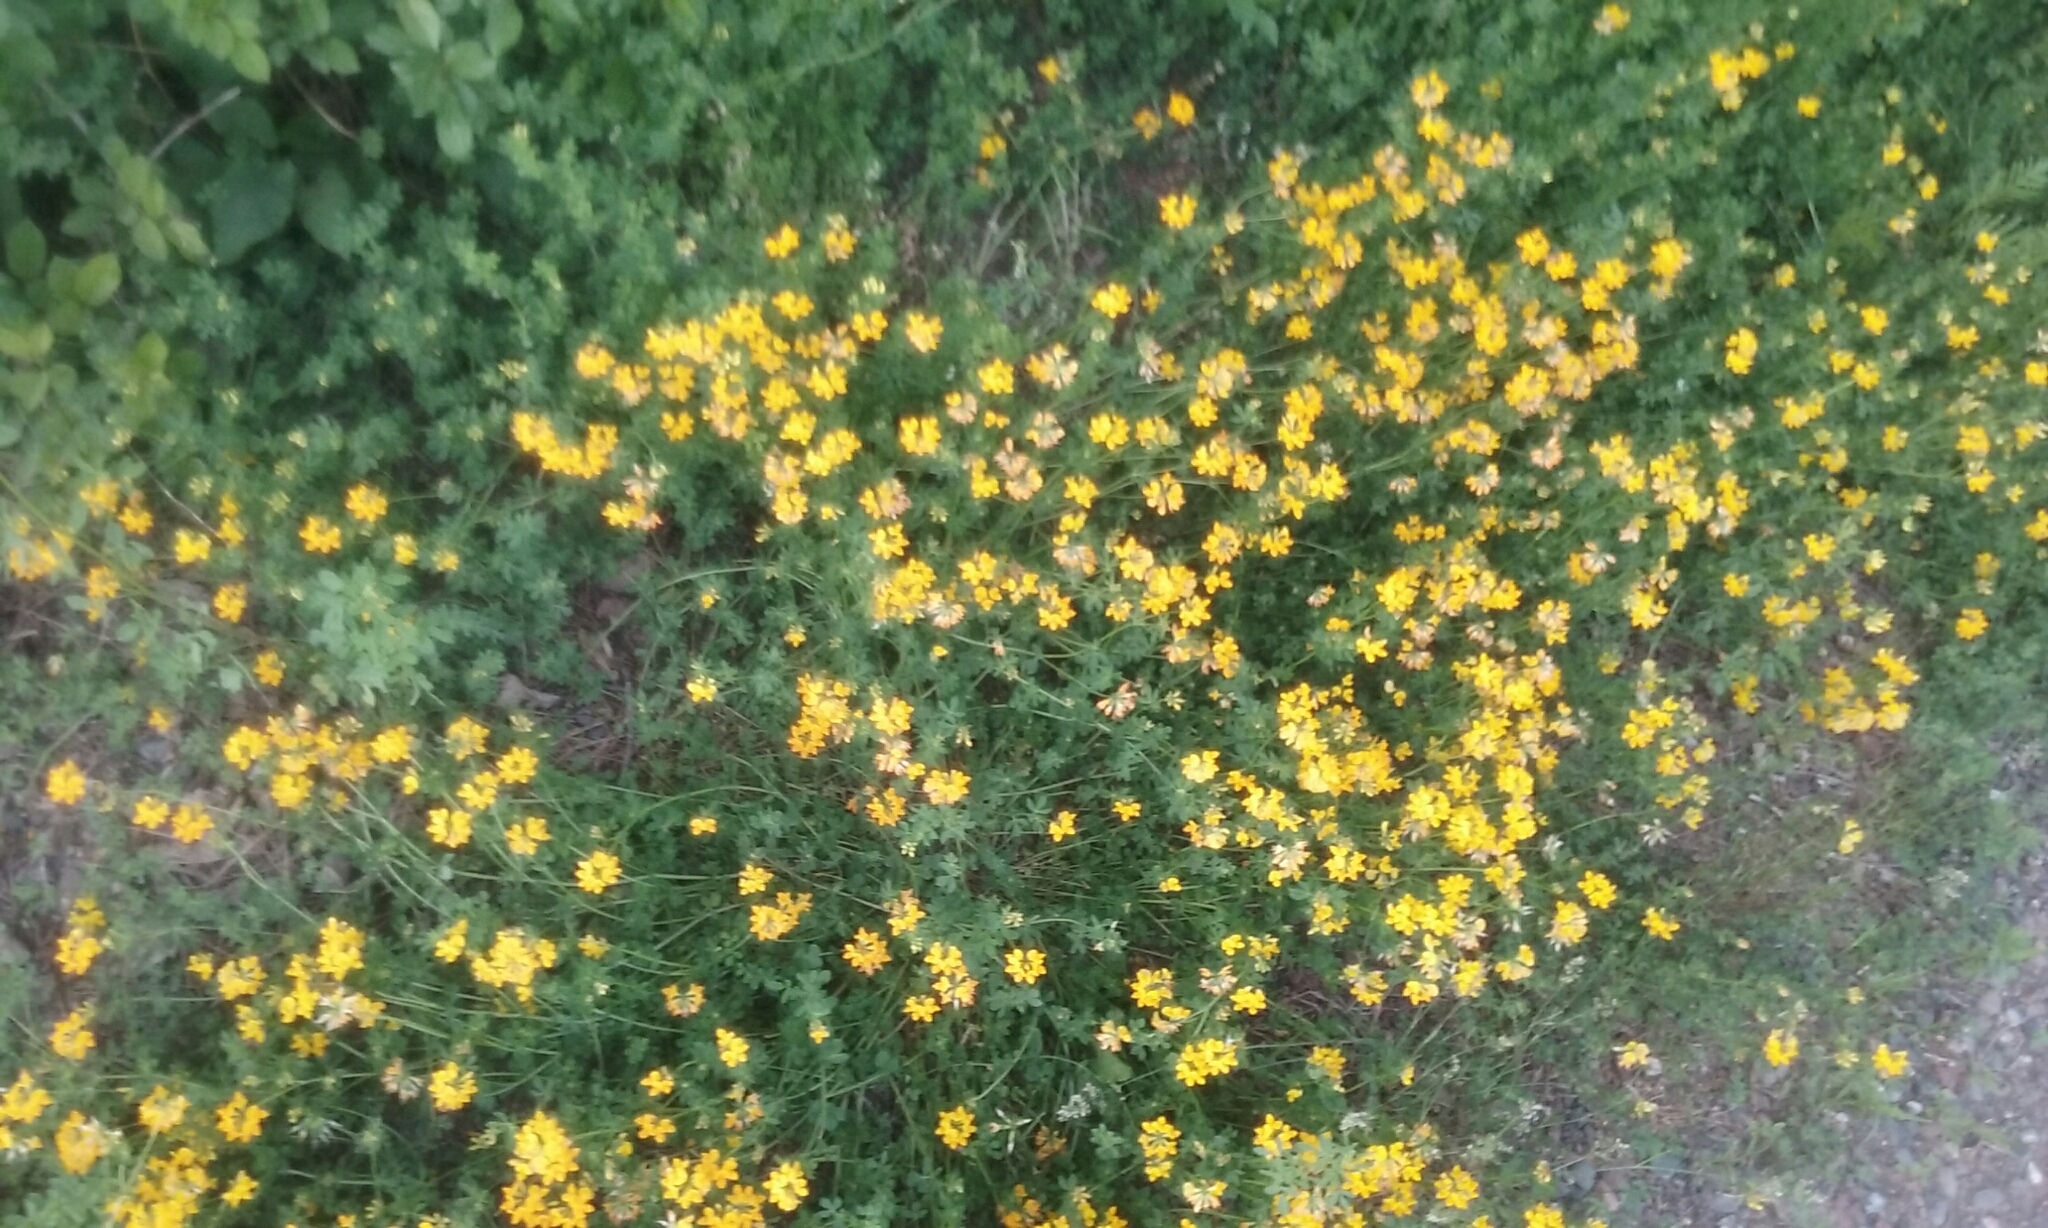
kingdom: Plantae
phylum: Tracheophyta
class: Magnoliopsida
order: Fabales
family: Fabaceae
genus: Lotus
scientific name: Lotus corniculatus
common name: Common bird's-foot-trefoil
